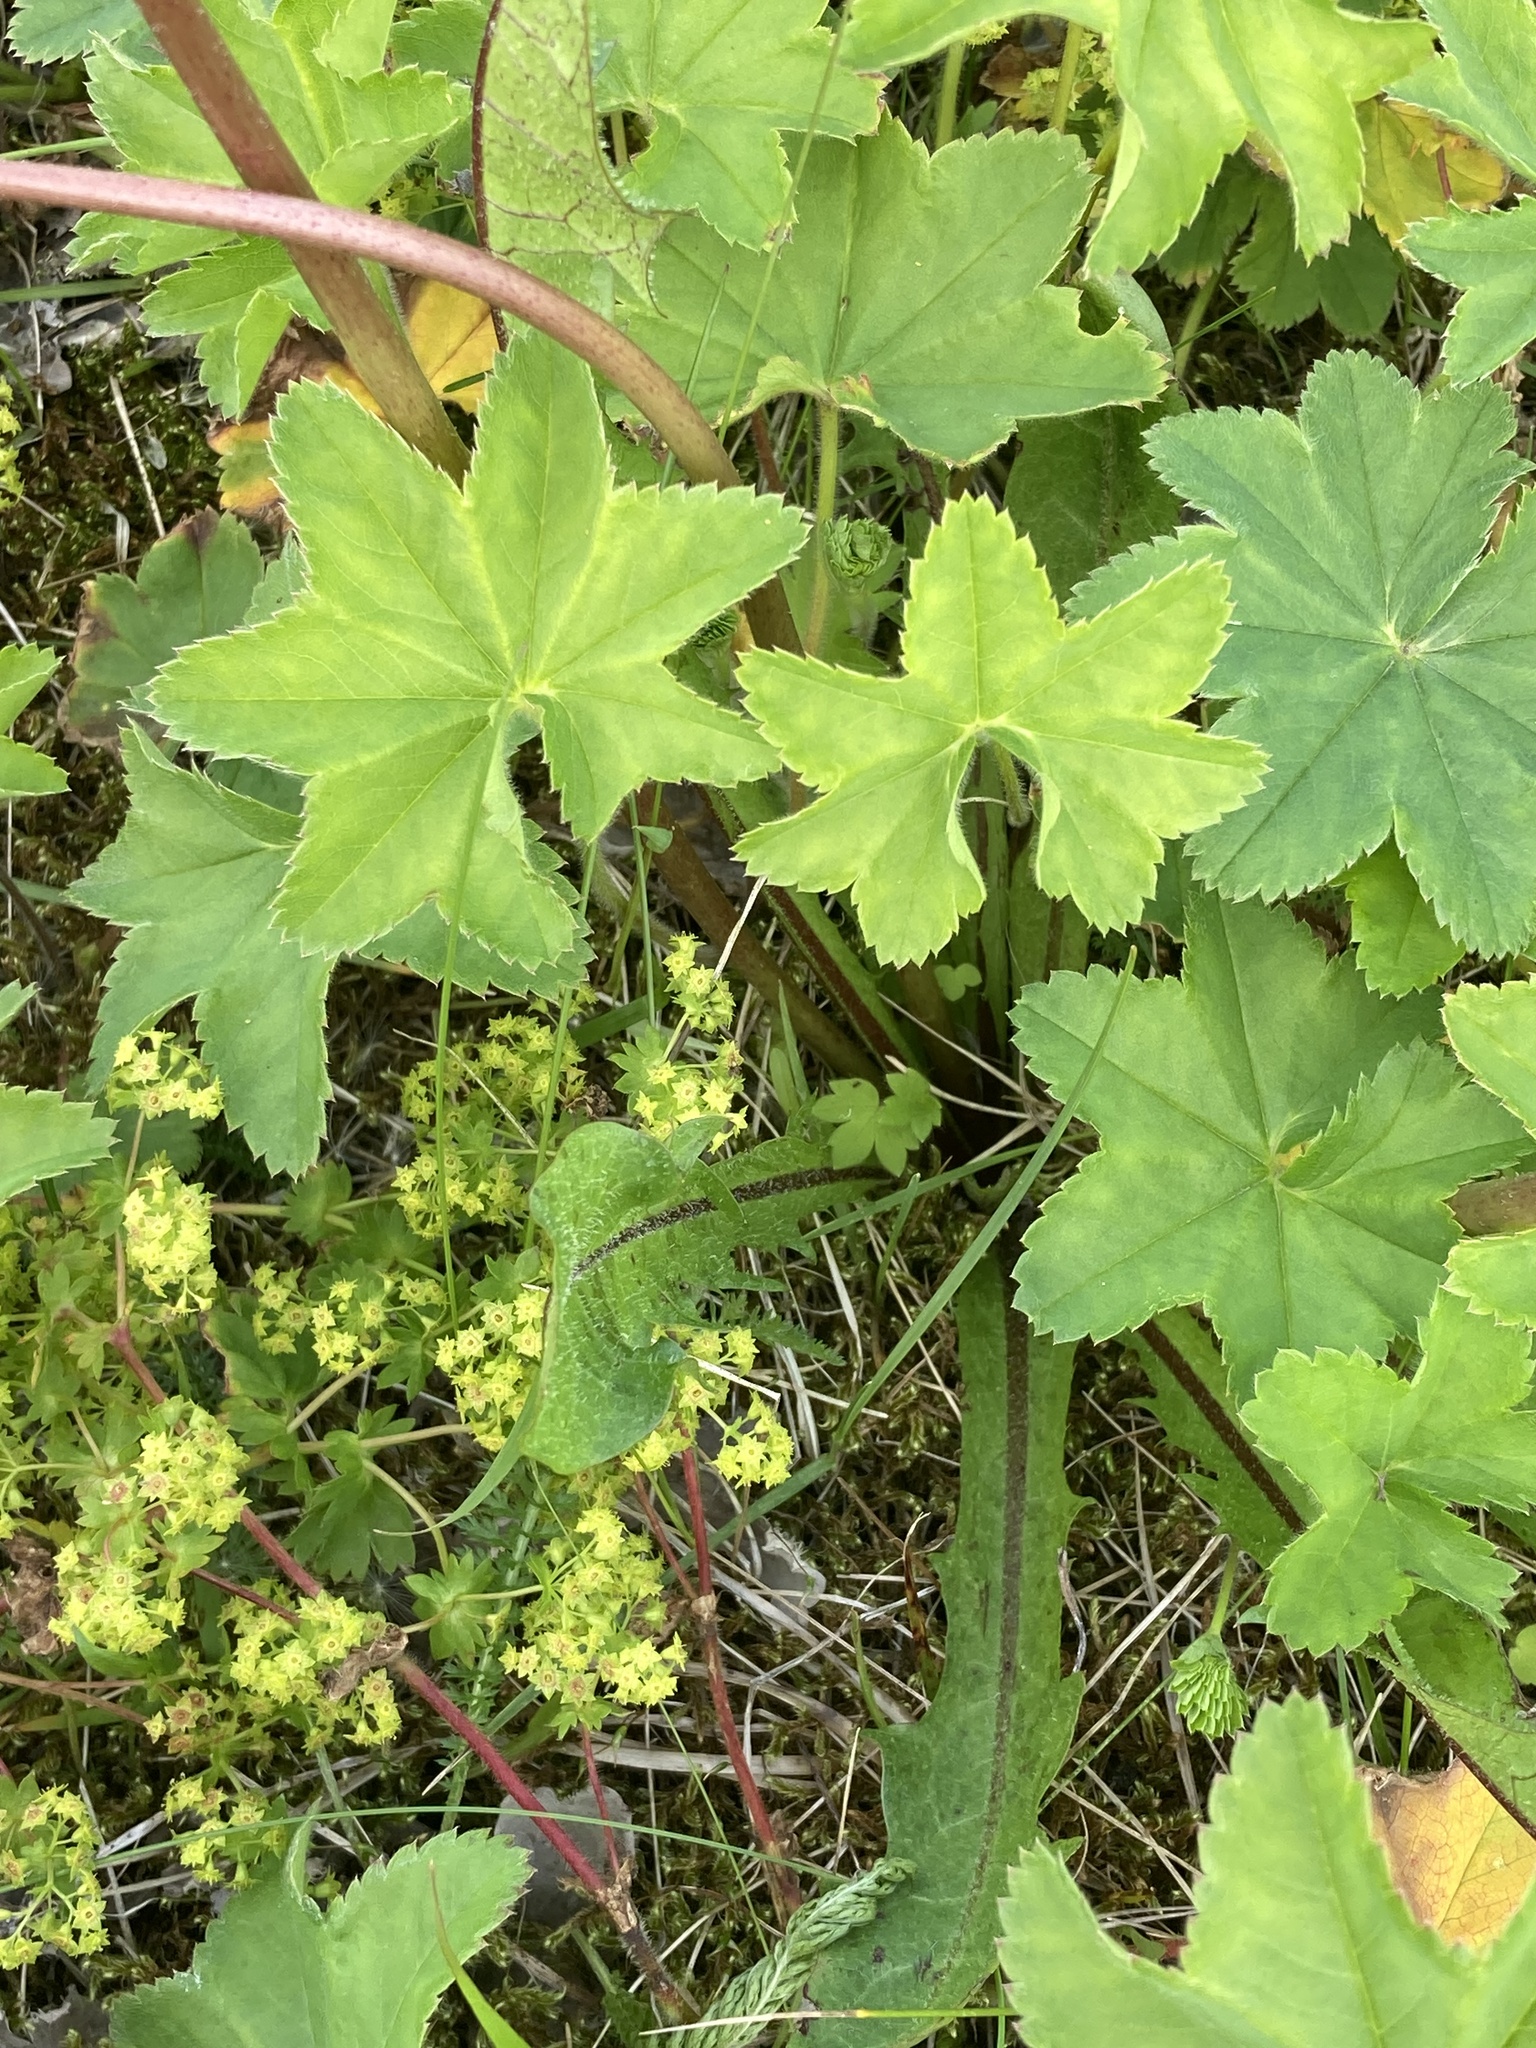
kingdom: Plantae
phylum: Tracheophyta
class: Magnoliopsida
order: Rosales
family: Rosaceae
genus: Alchemilla
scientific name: Alchemilla filicaulis
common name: Hairy lady's-mantle
